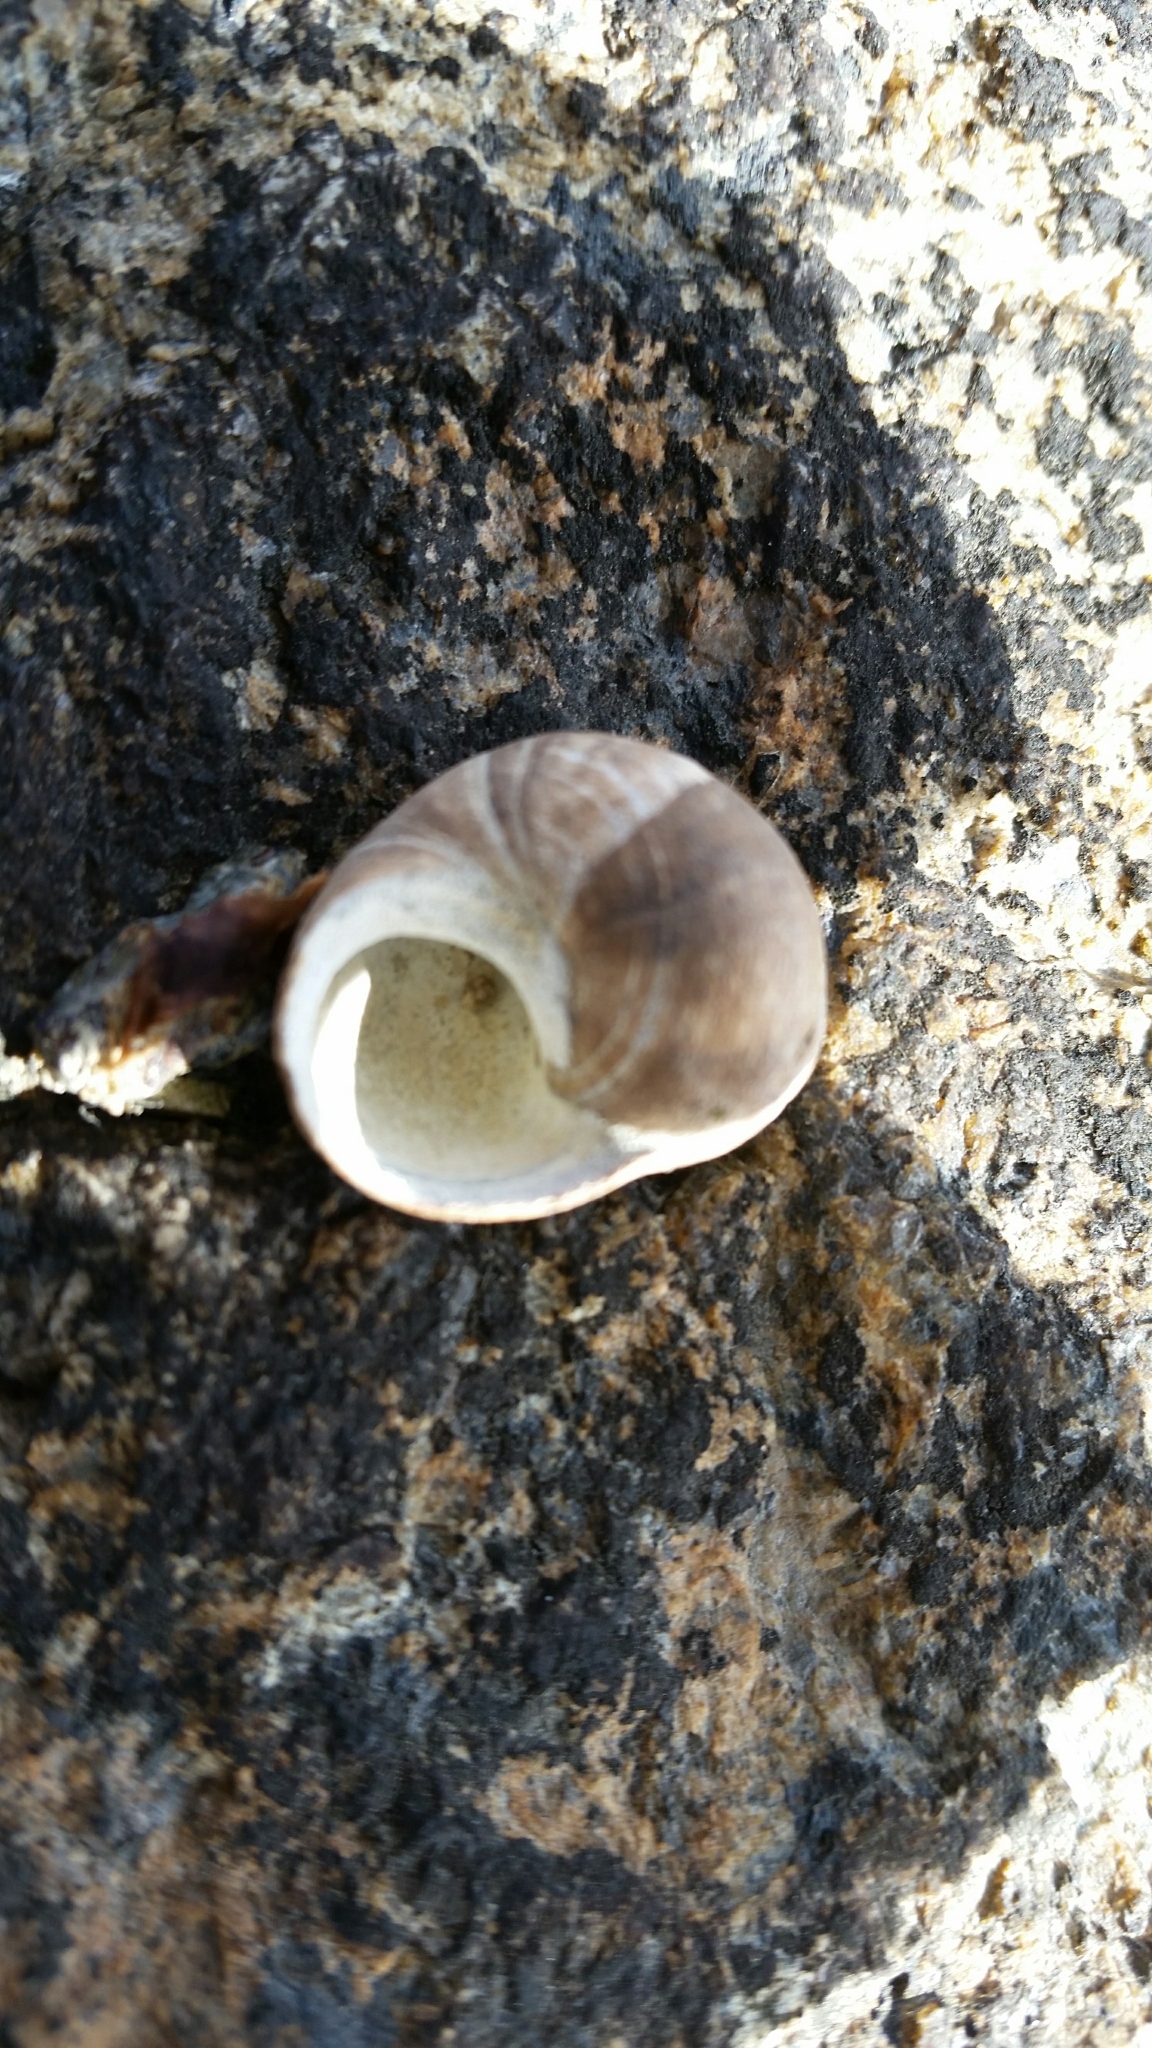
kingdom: Animalia
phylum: Mollusca
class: Gastropoda
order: Littorinimorpha
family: Littorinidae
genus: Littorina
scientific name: Littorina littorea
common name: Common periwinkle
